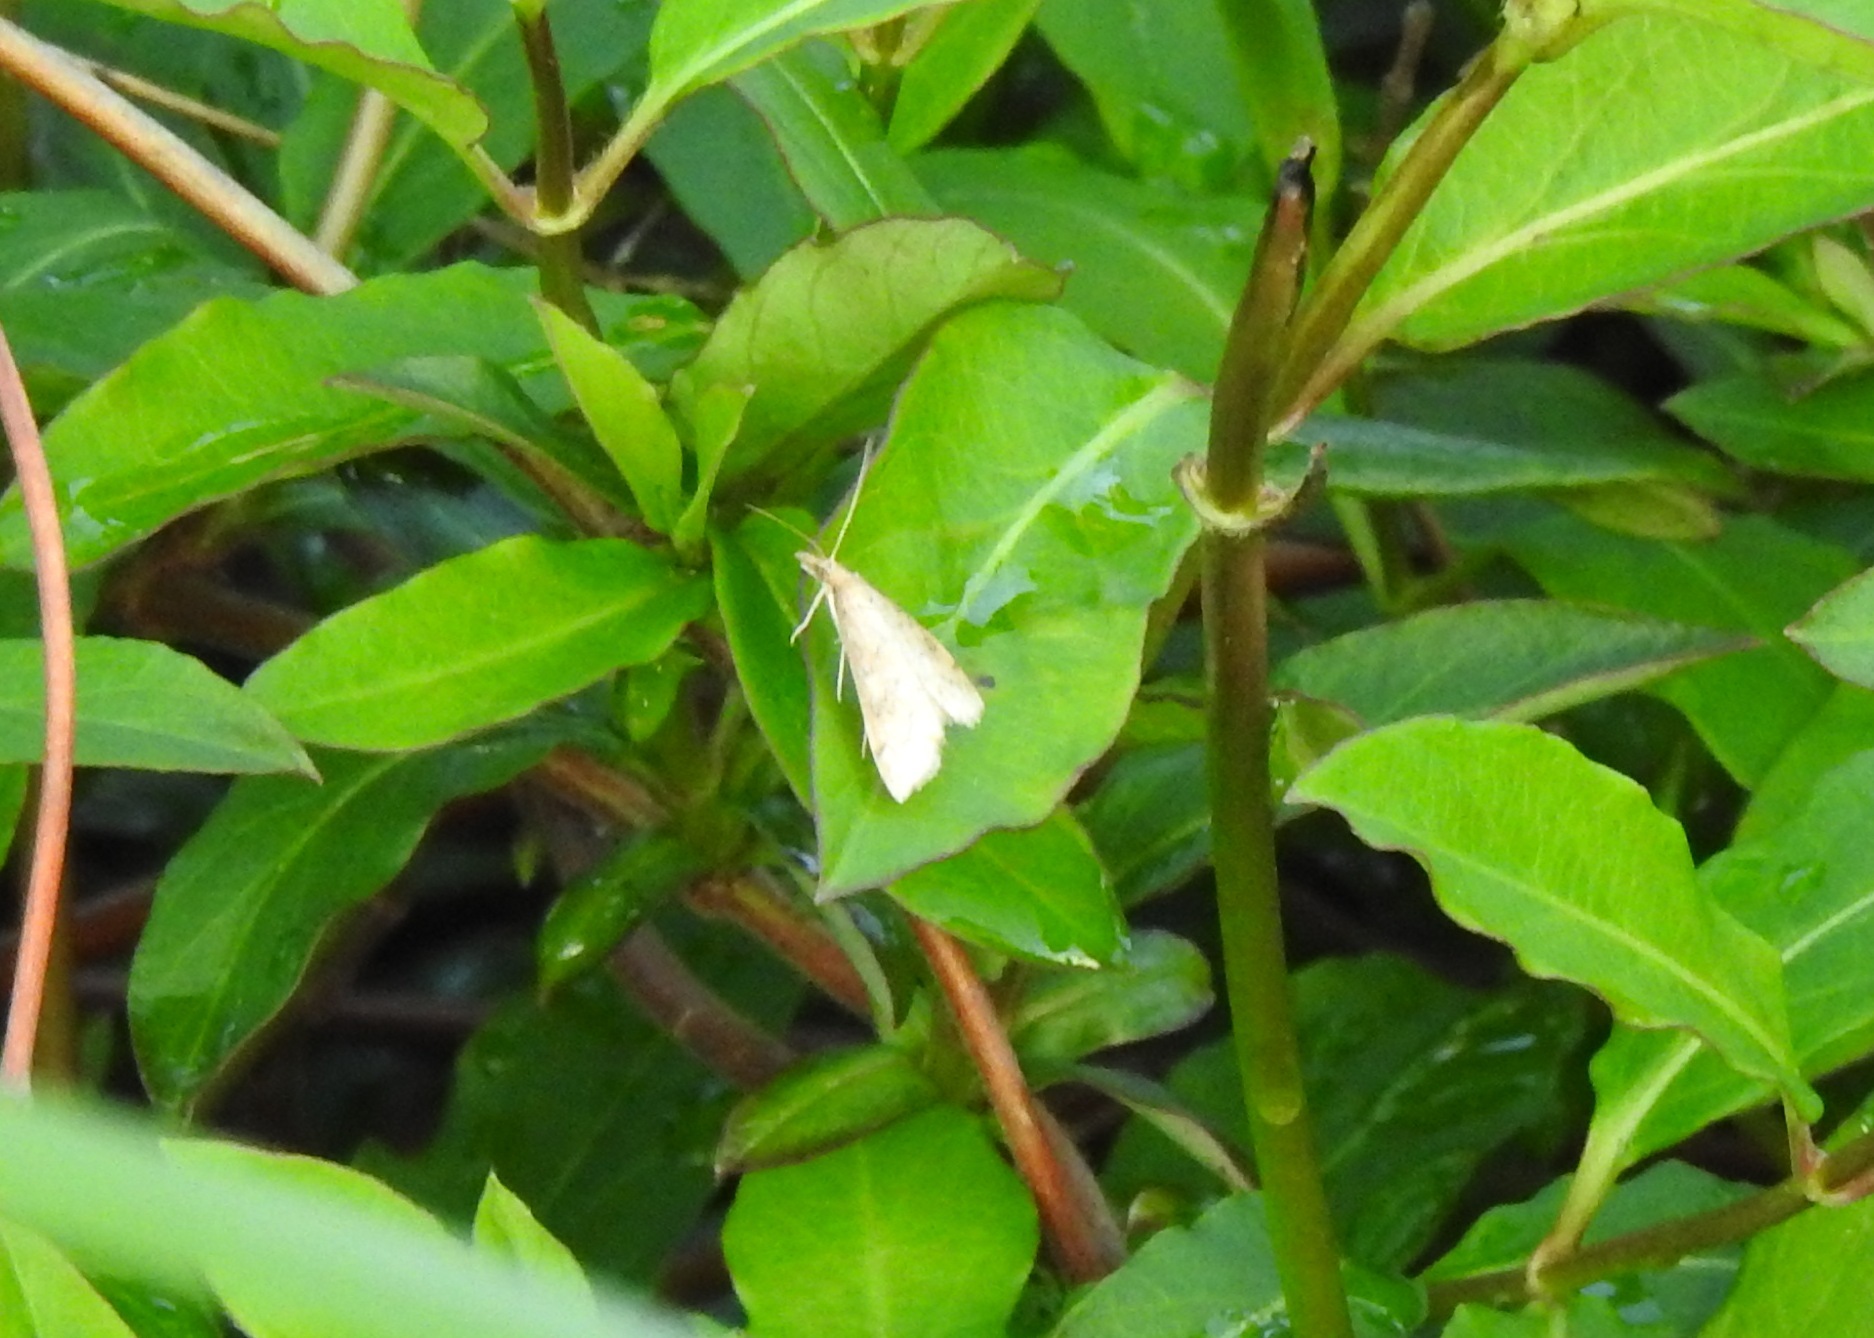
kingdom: Animalia
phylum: Arthropoda
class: Insecta
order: Lepidoptera
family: Crambidae
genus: Udea
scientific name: Udea rubigalis
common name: Celery leaftier moth
